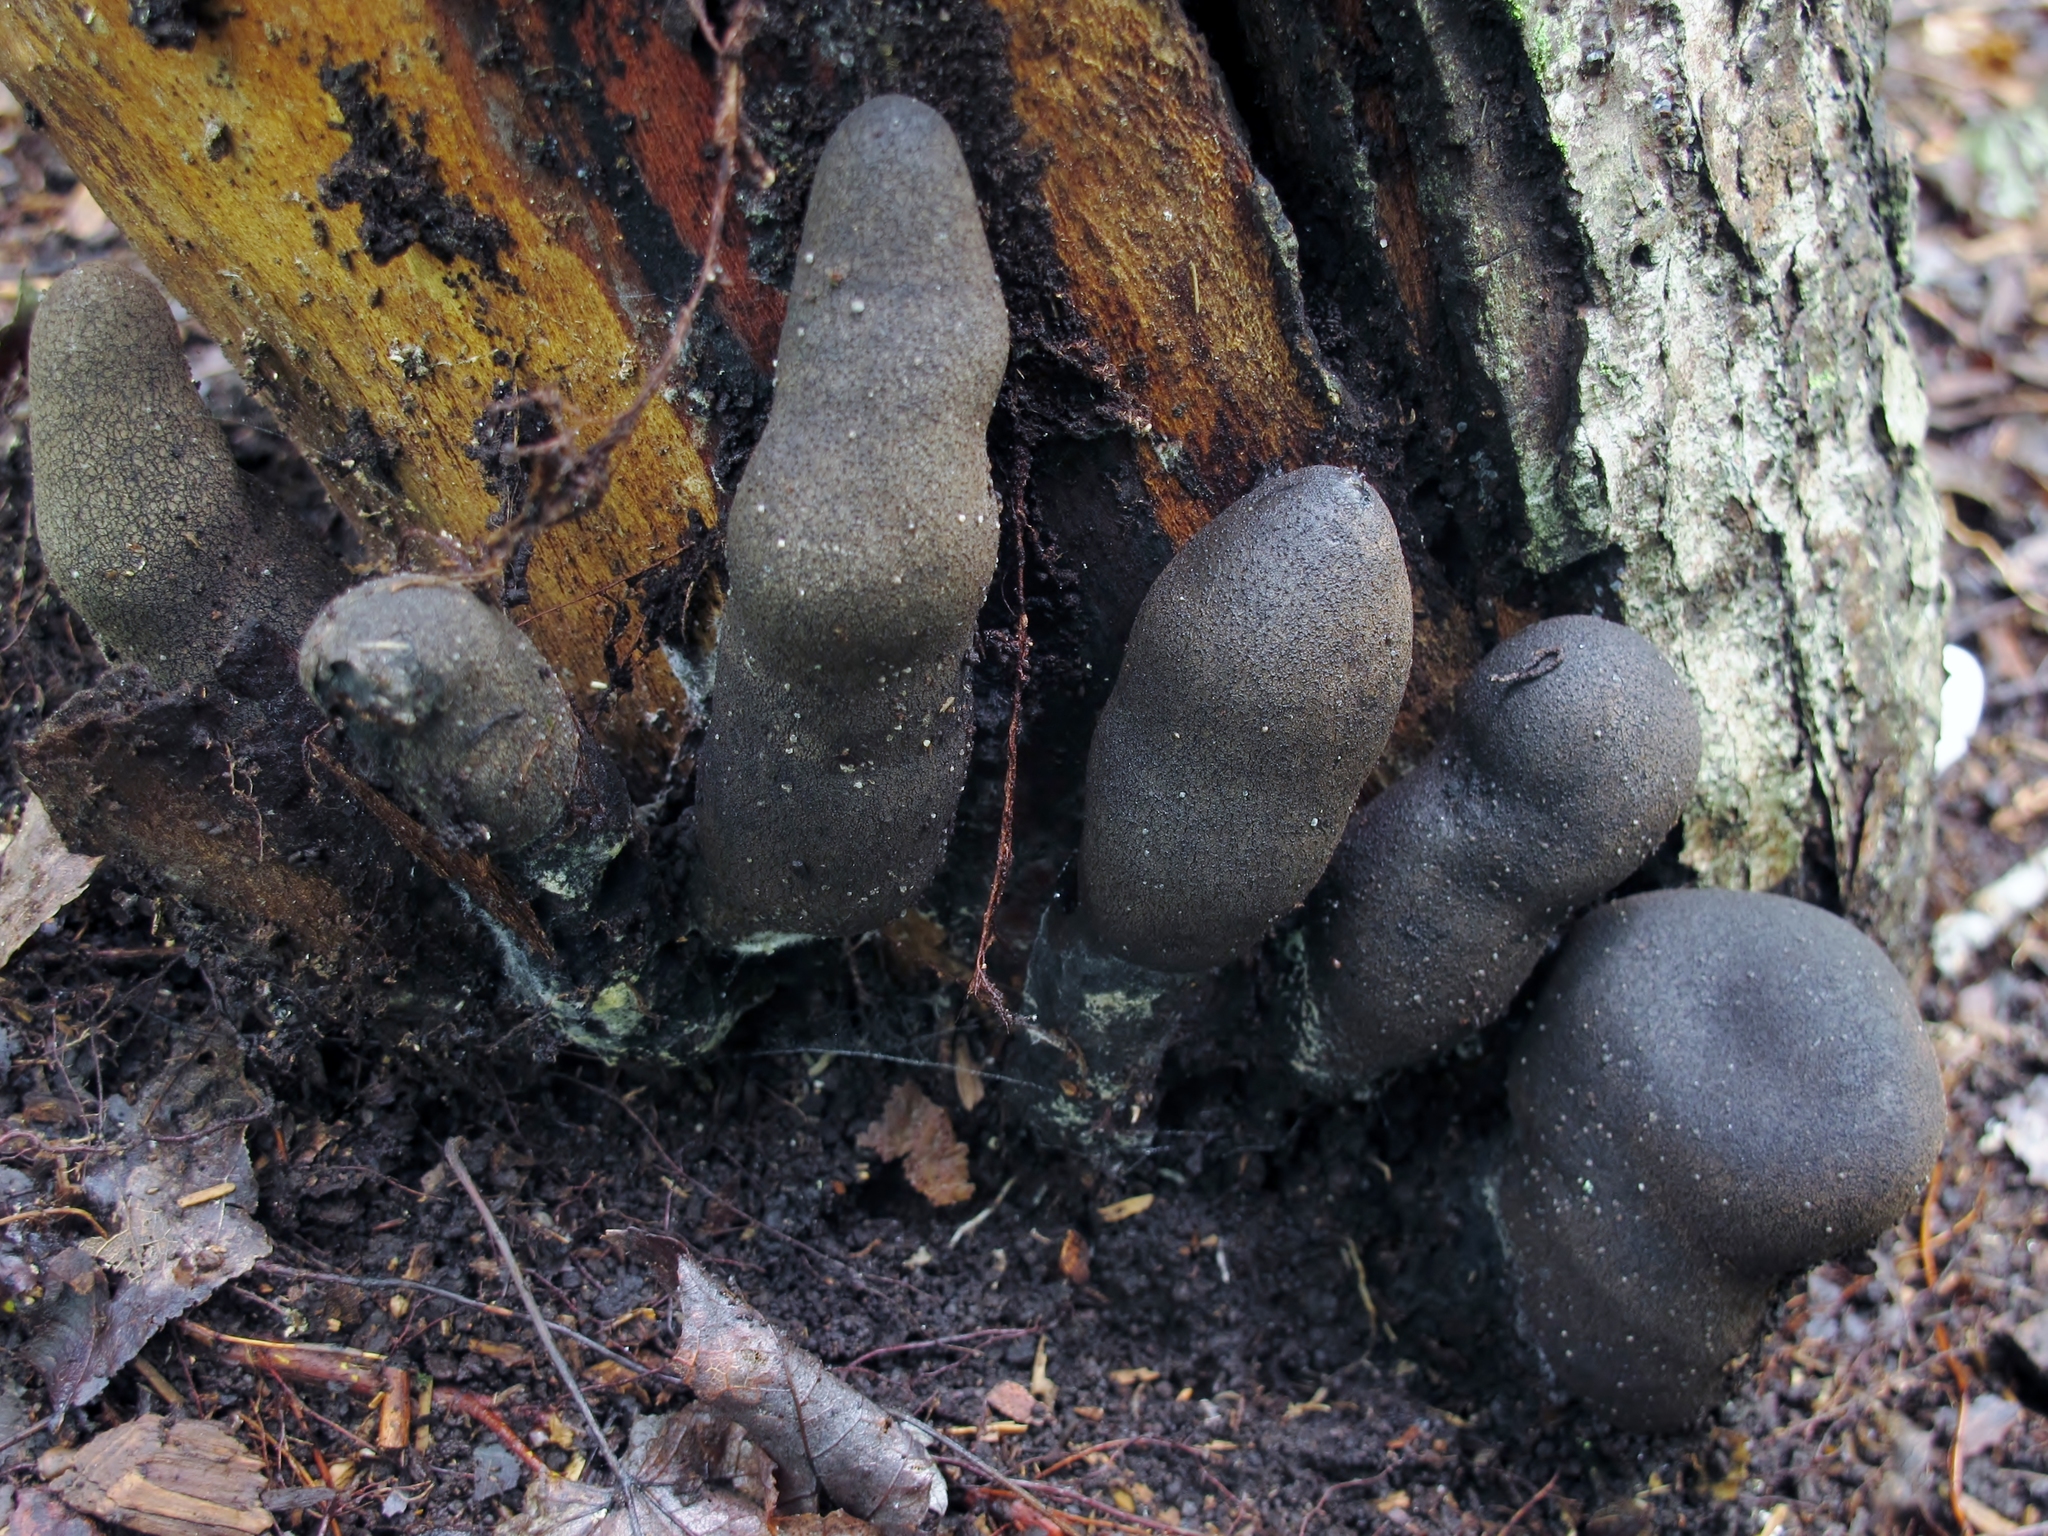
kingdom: Fungi
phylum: Ascomycota
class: Sordariomycetes
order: Xylariales
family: Xylariaceae
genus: Xylaria
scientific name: Xylaria polymorpha
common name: Dead man's fingers
